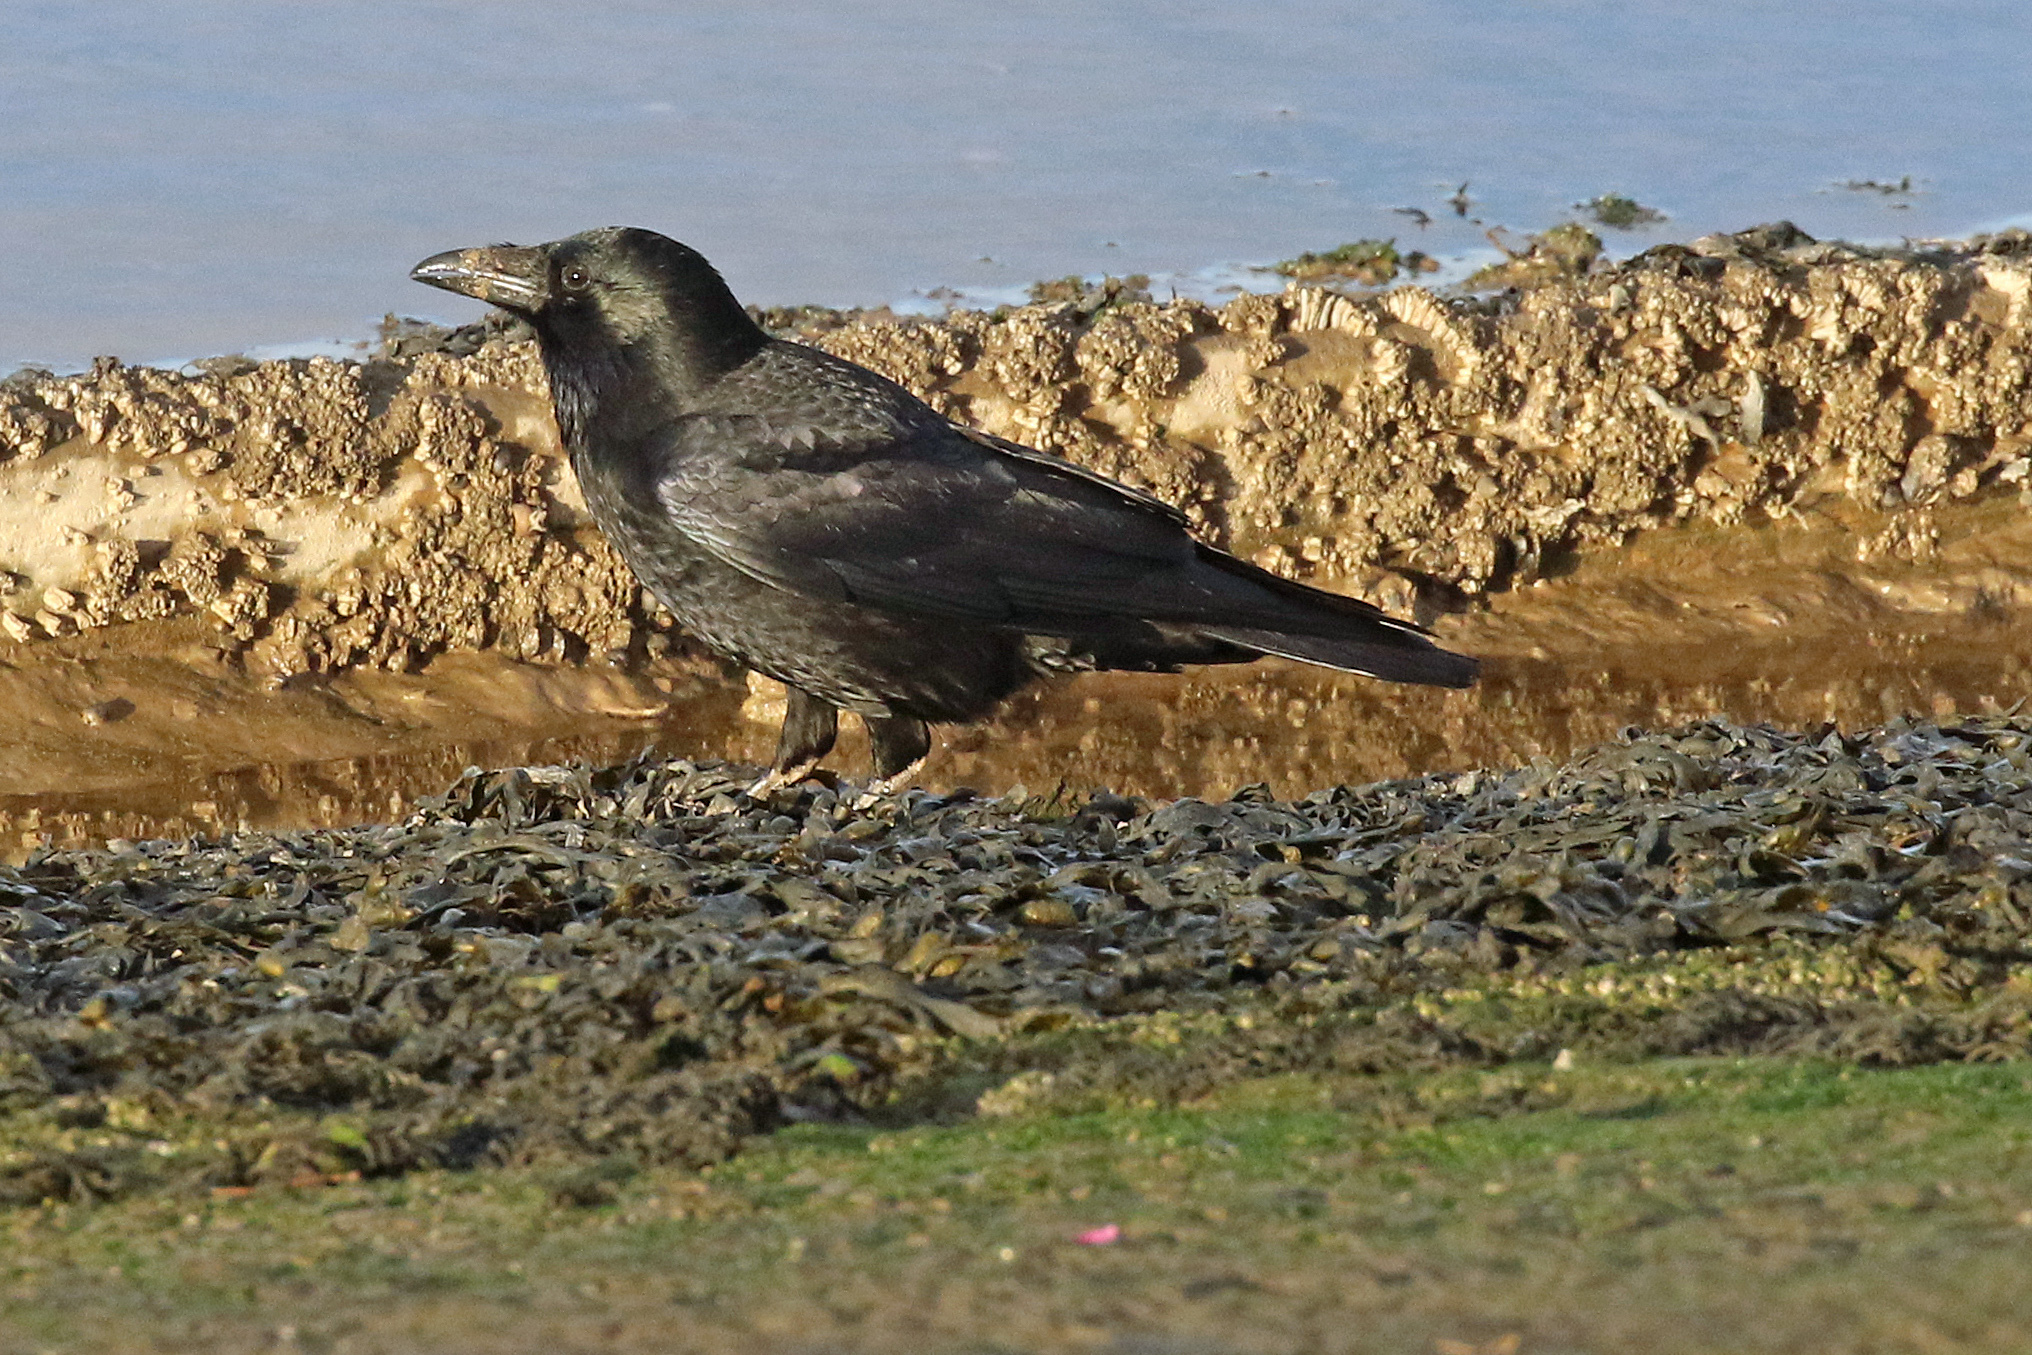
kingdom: Animalia
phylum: Chordata
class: Aves
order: Passeriformes
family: Corvidae
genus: Corvus
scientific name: Corvus corone
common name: Carrion crow
